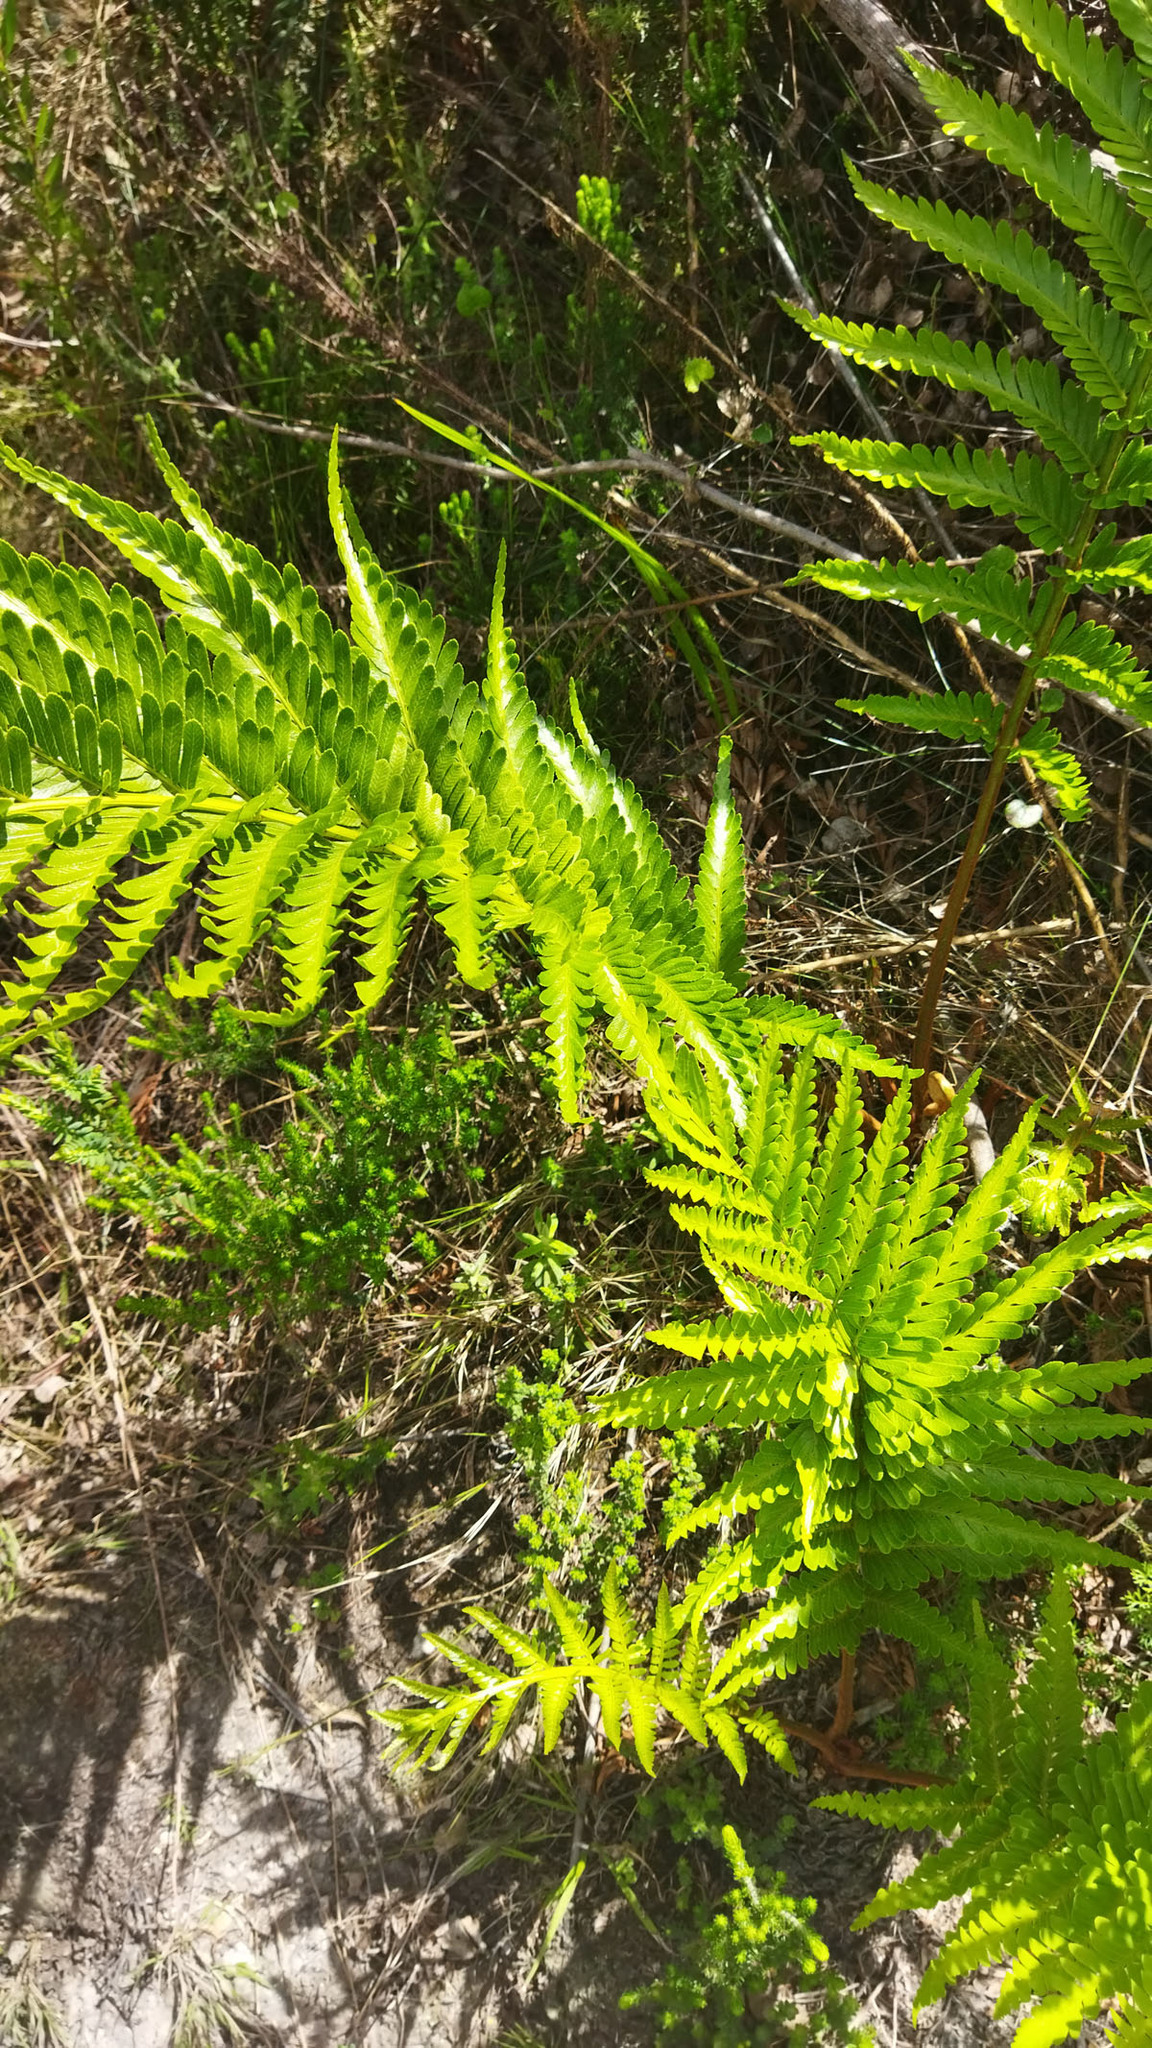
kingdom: Plantae
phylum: Tracheophyta
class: Polypodiopsida
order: Osmundales
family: Osmundaceae
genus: Todea
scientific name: Todea barbara
